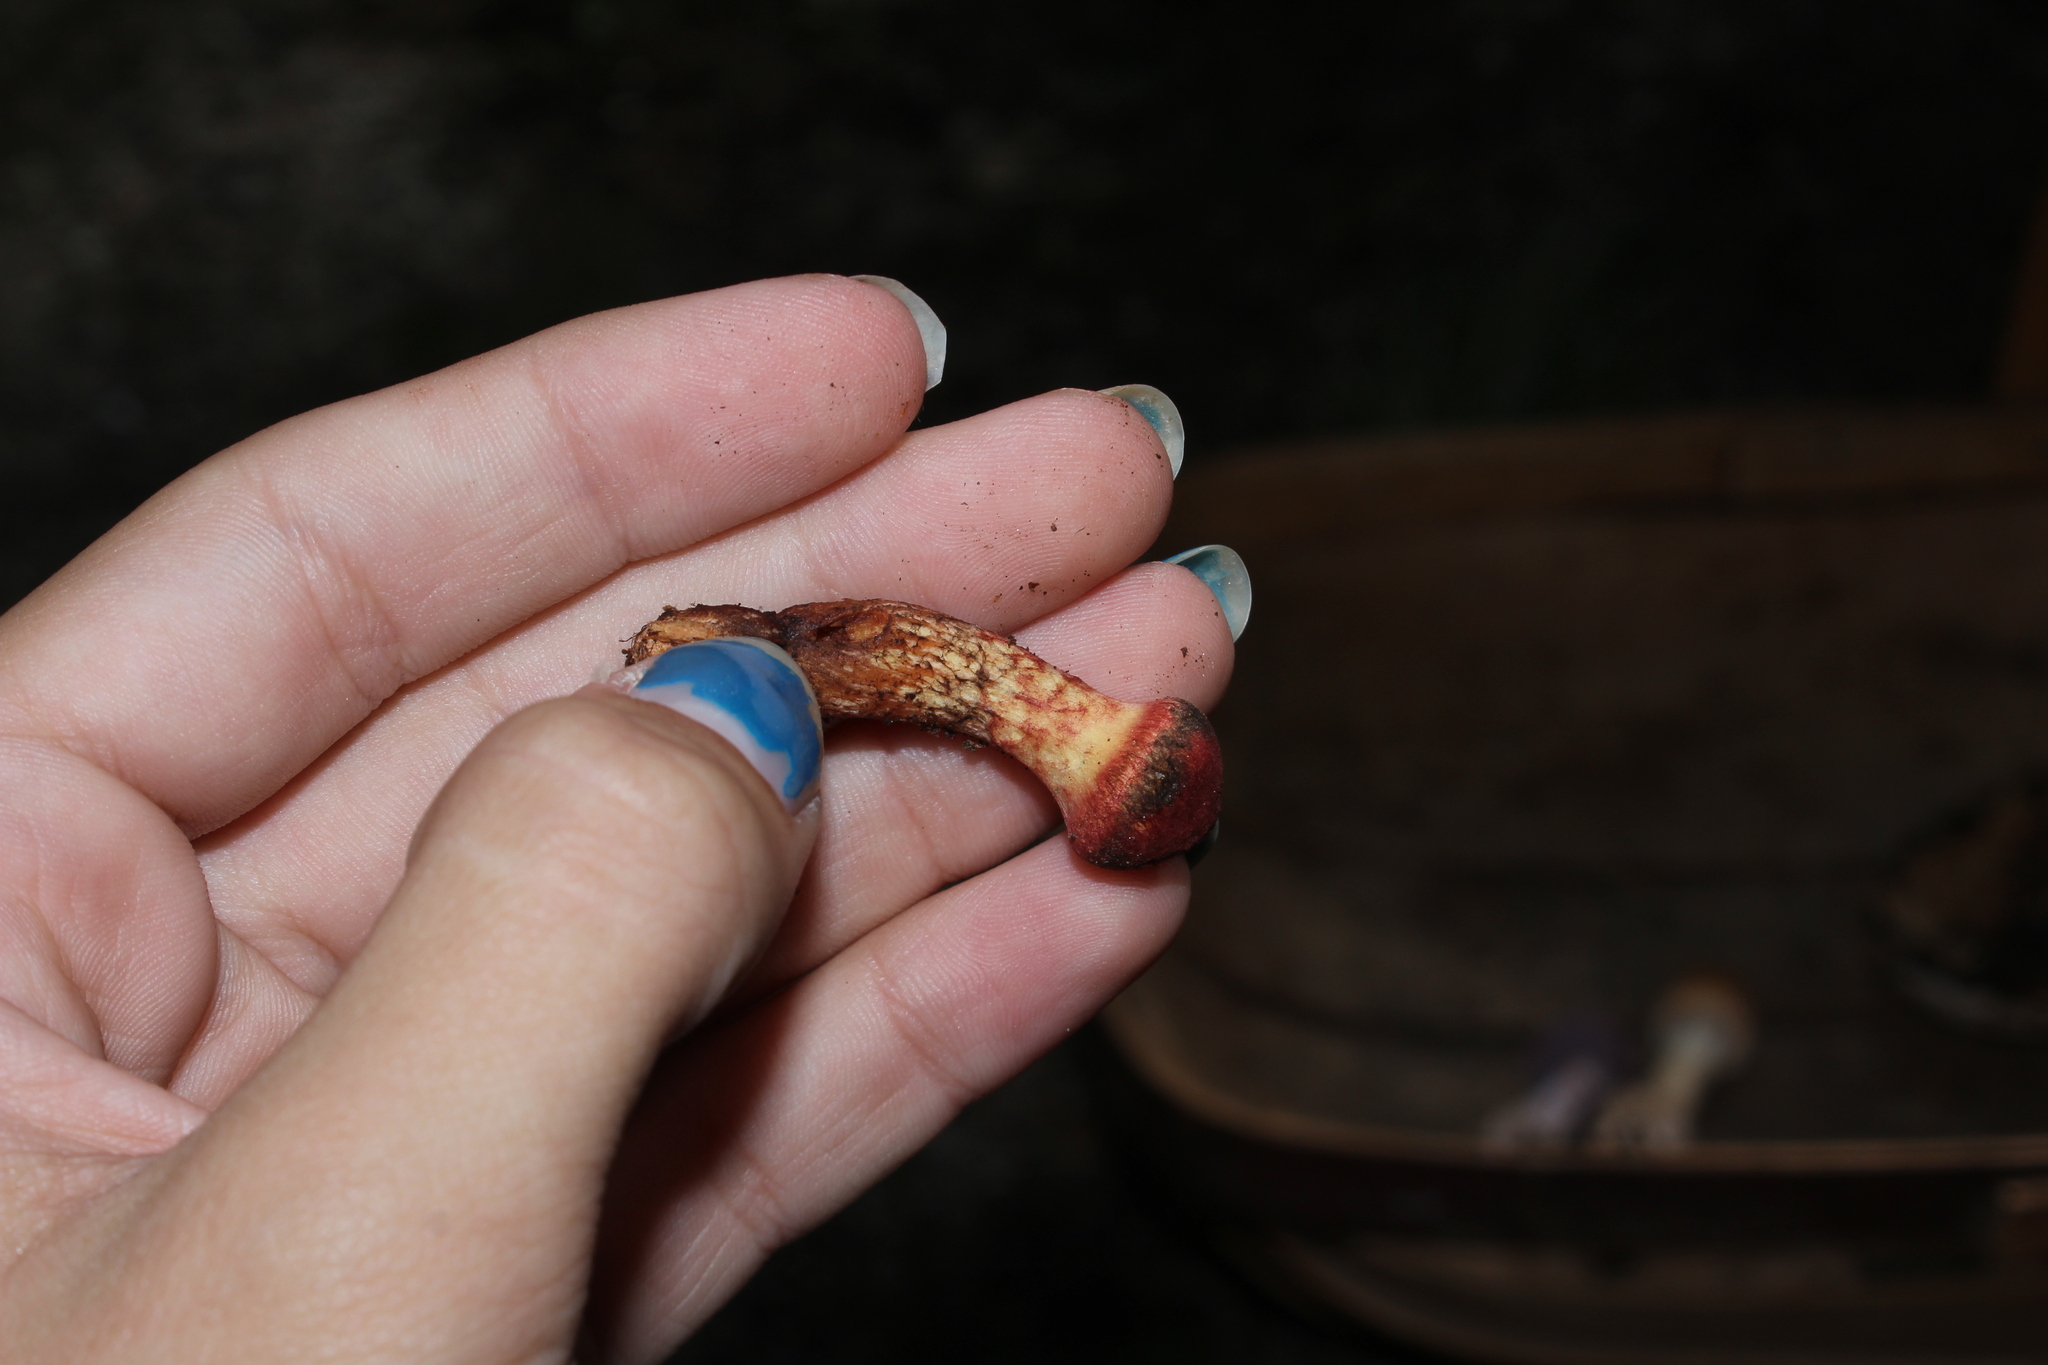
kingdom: Fungi
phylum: Basidiomycota
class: Agaricomycetes
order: Boletales
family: Suillaceae
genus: Suillus
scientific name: Suillus spraguei
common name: Painted suillus
